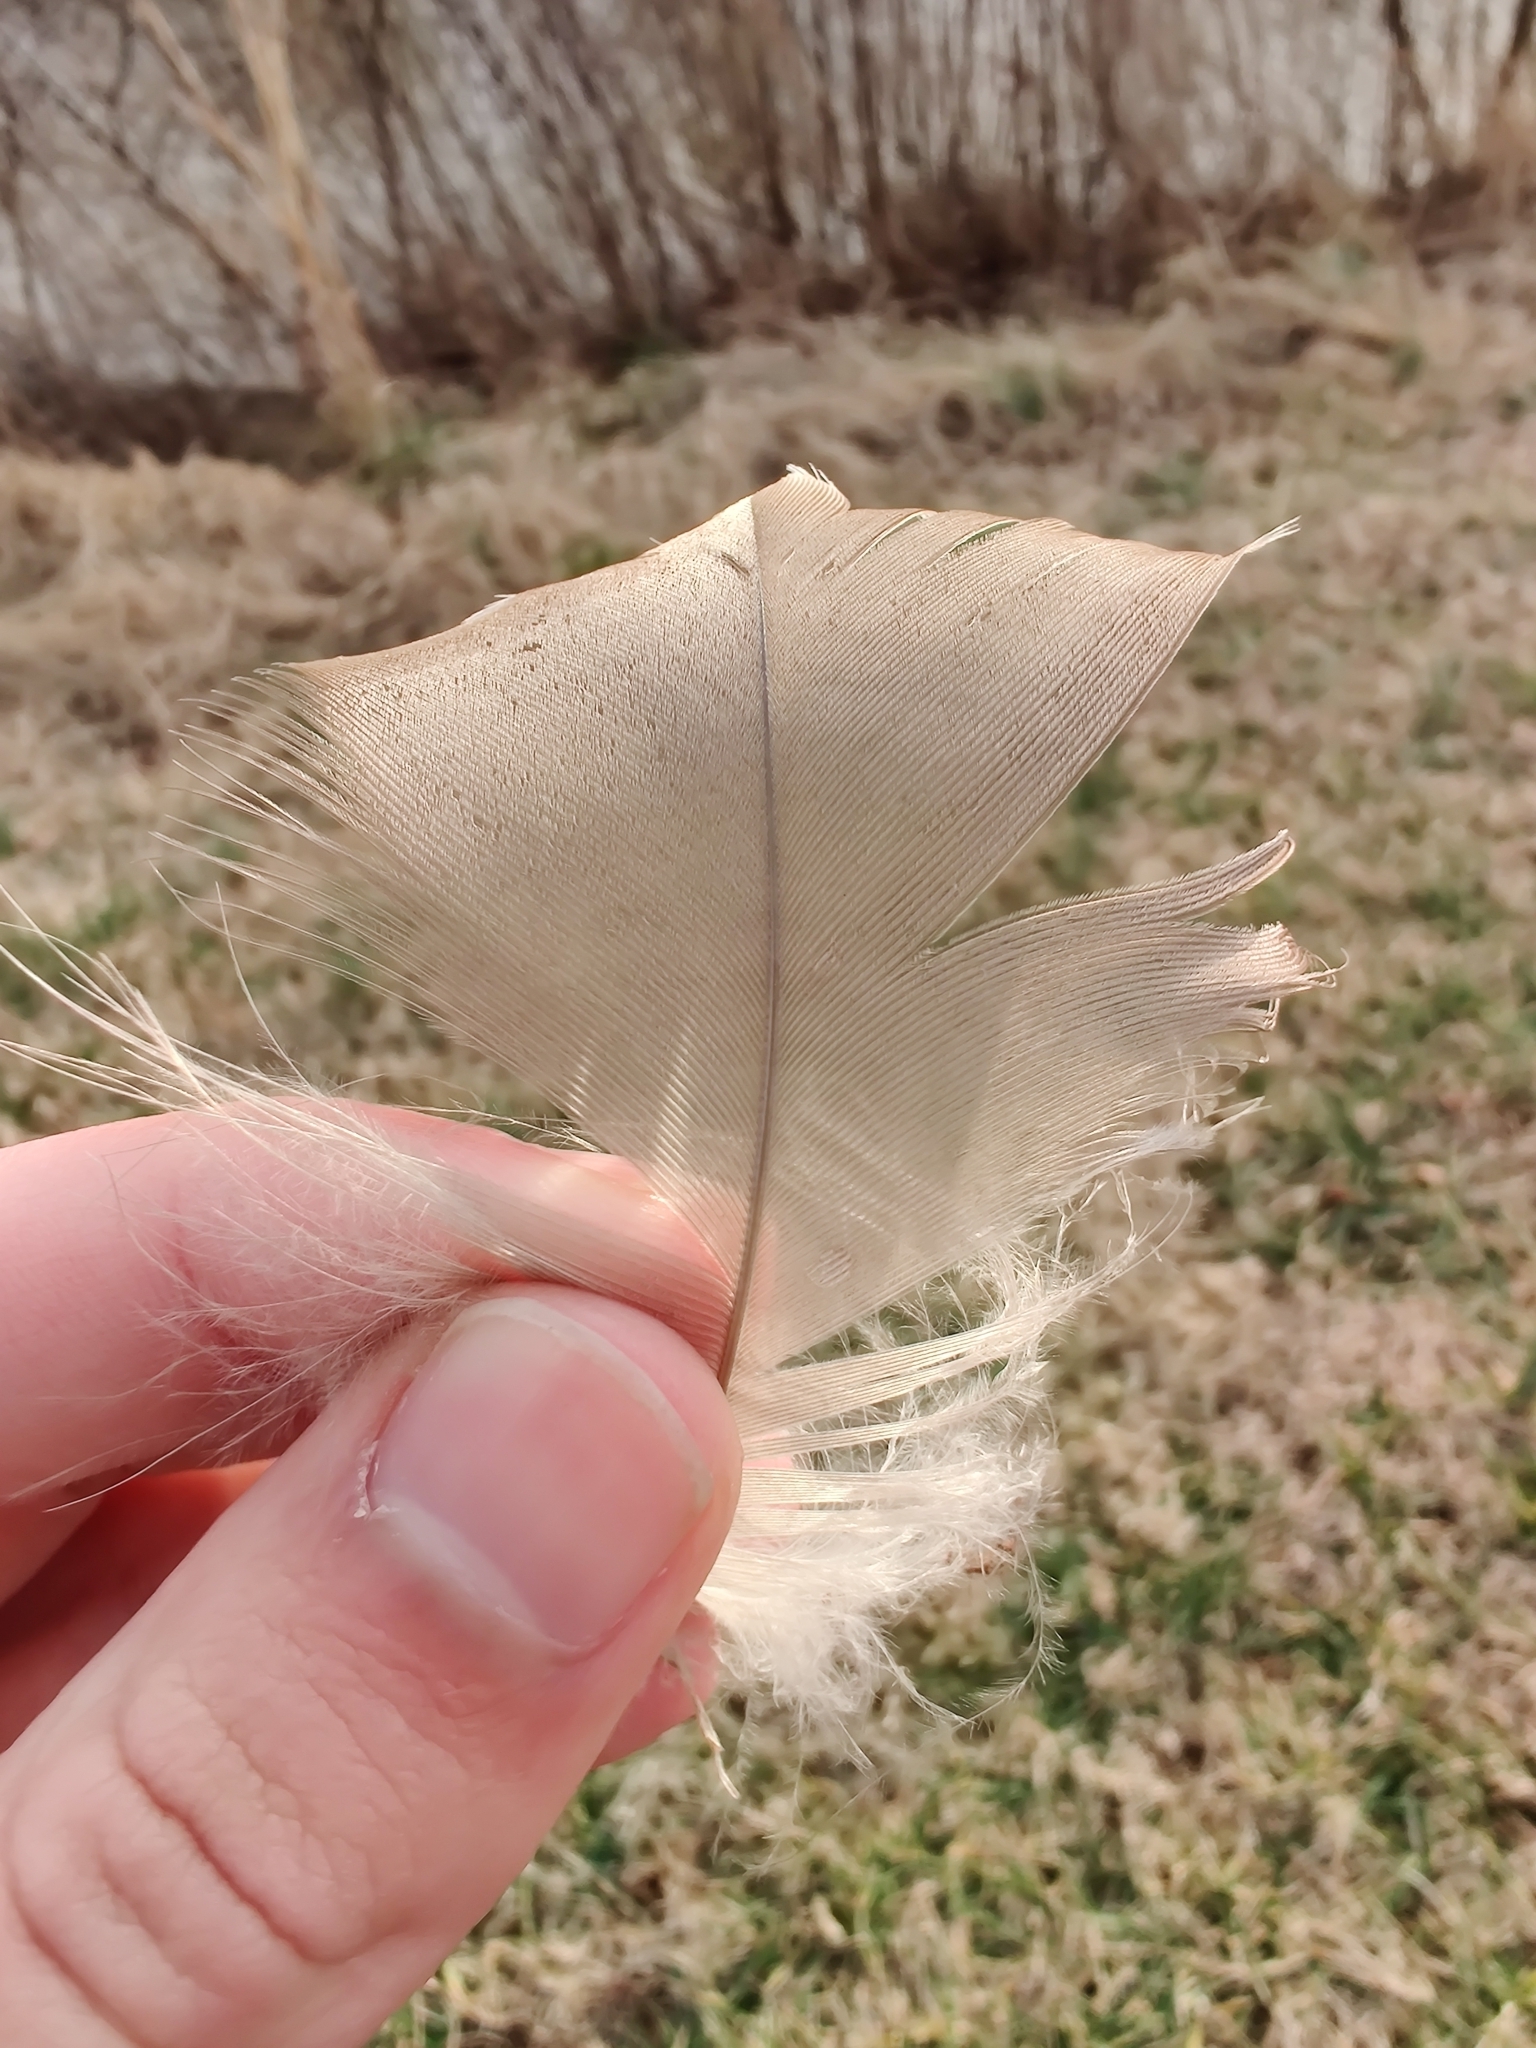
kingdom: Animalia
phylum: Chordata
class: Aves
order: Anseriformes
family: Anatidae
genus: Branta
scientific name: Branta canadensis
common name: Canada goose
